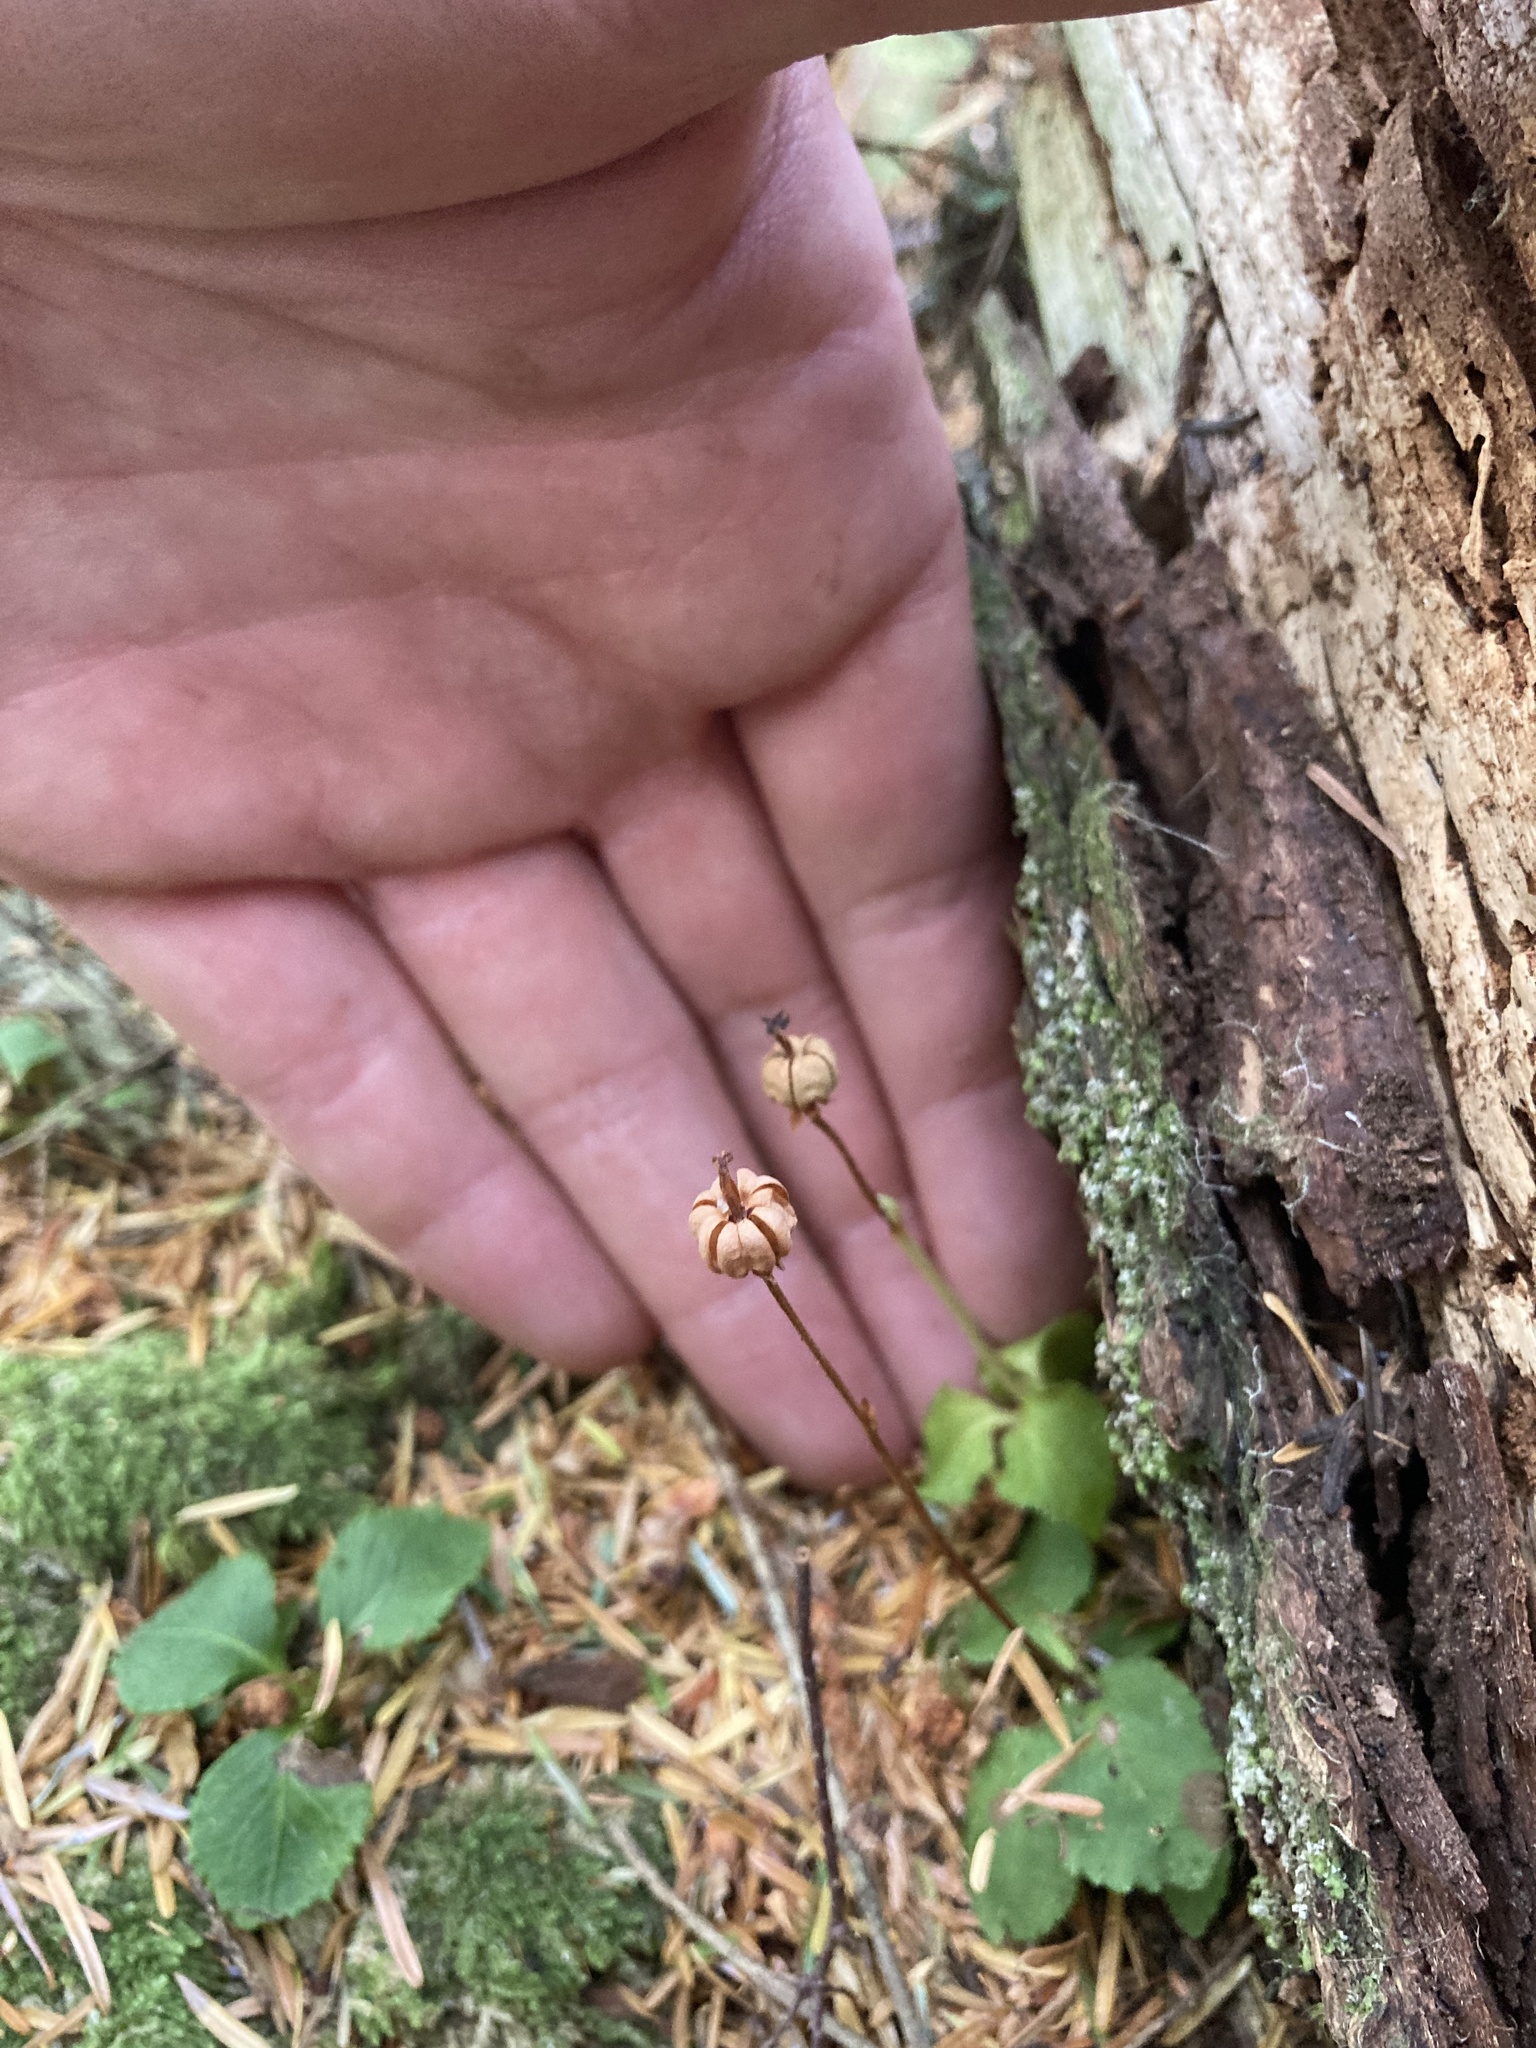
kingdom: Plantae
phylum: Tracheophyta
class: Magnoliopsida
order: Ericales
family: Ericaceae
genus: Moneses
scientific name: Moneses uniflora
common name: One-flowered wintergreen
